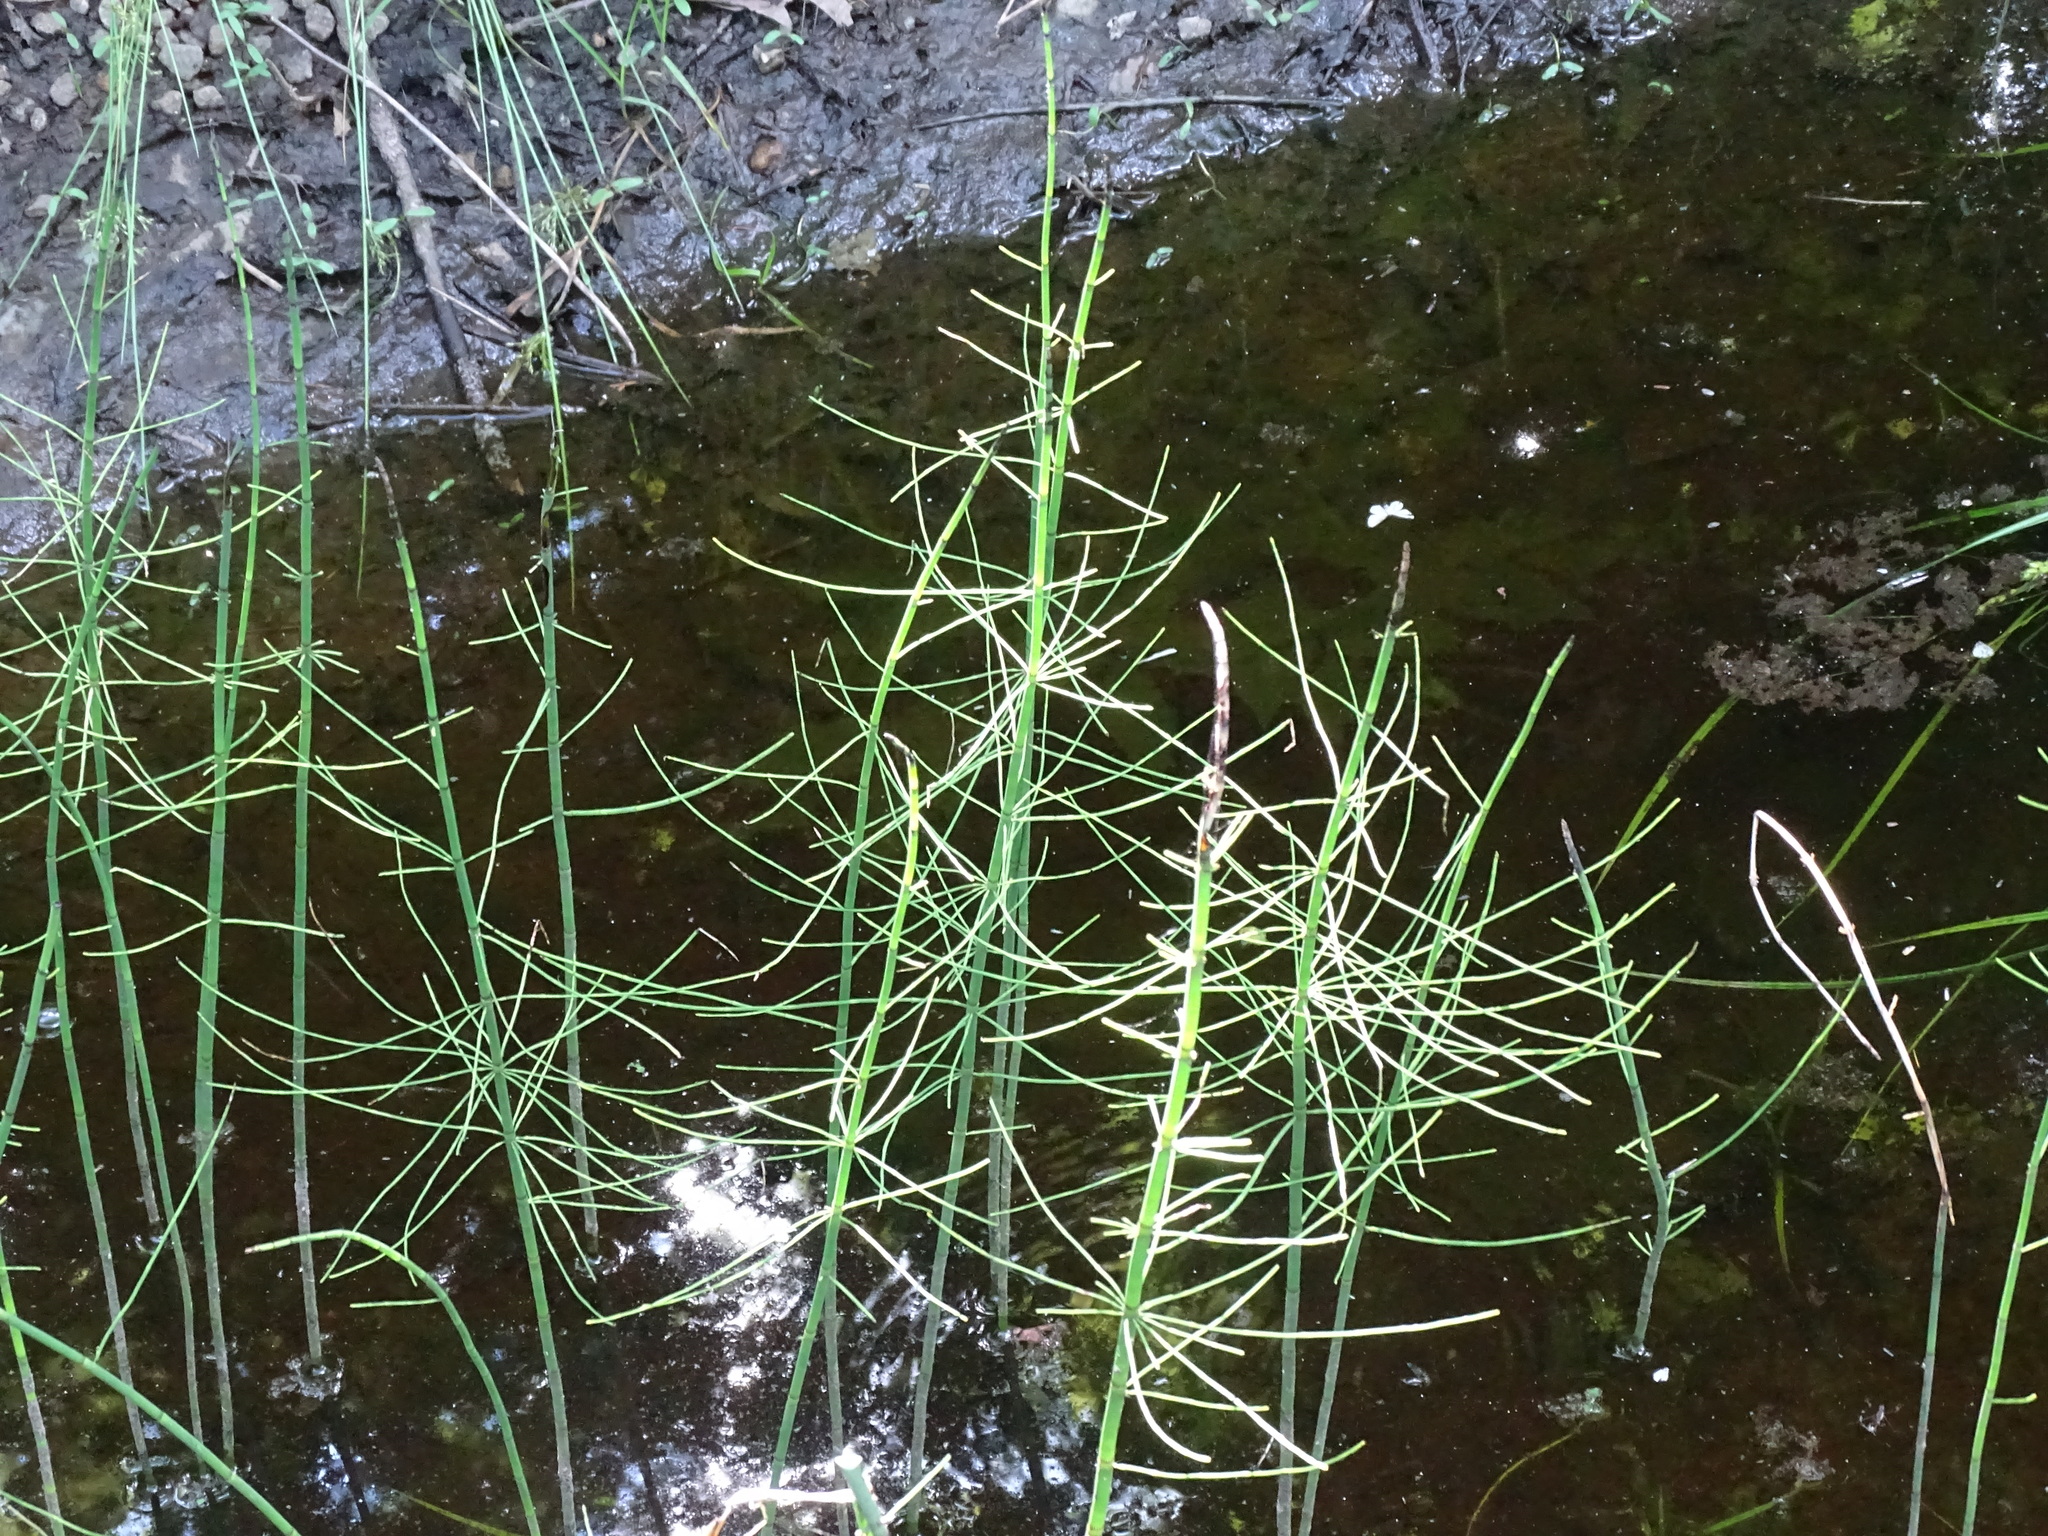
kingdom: Plantae
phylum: Tracheophyta
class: Polypodiopsida
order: Equisetales
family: Equisetaceae
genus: Equisetum
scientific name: Equisetum fluviatile
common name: Water horsetail
